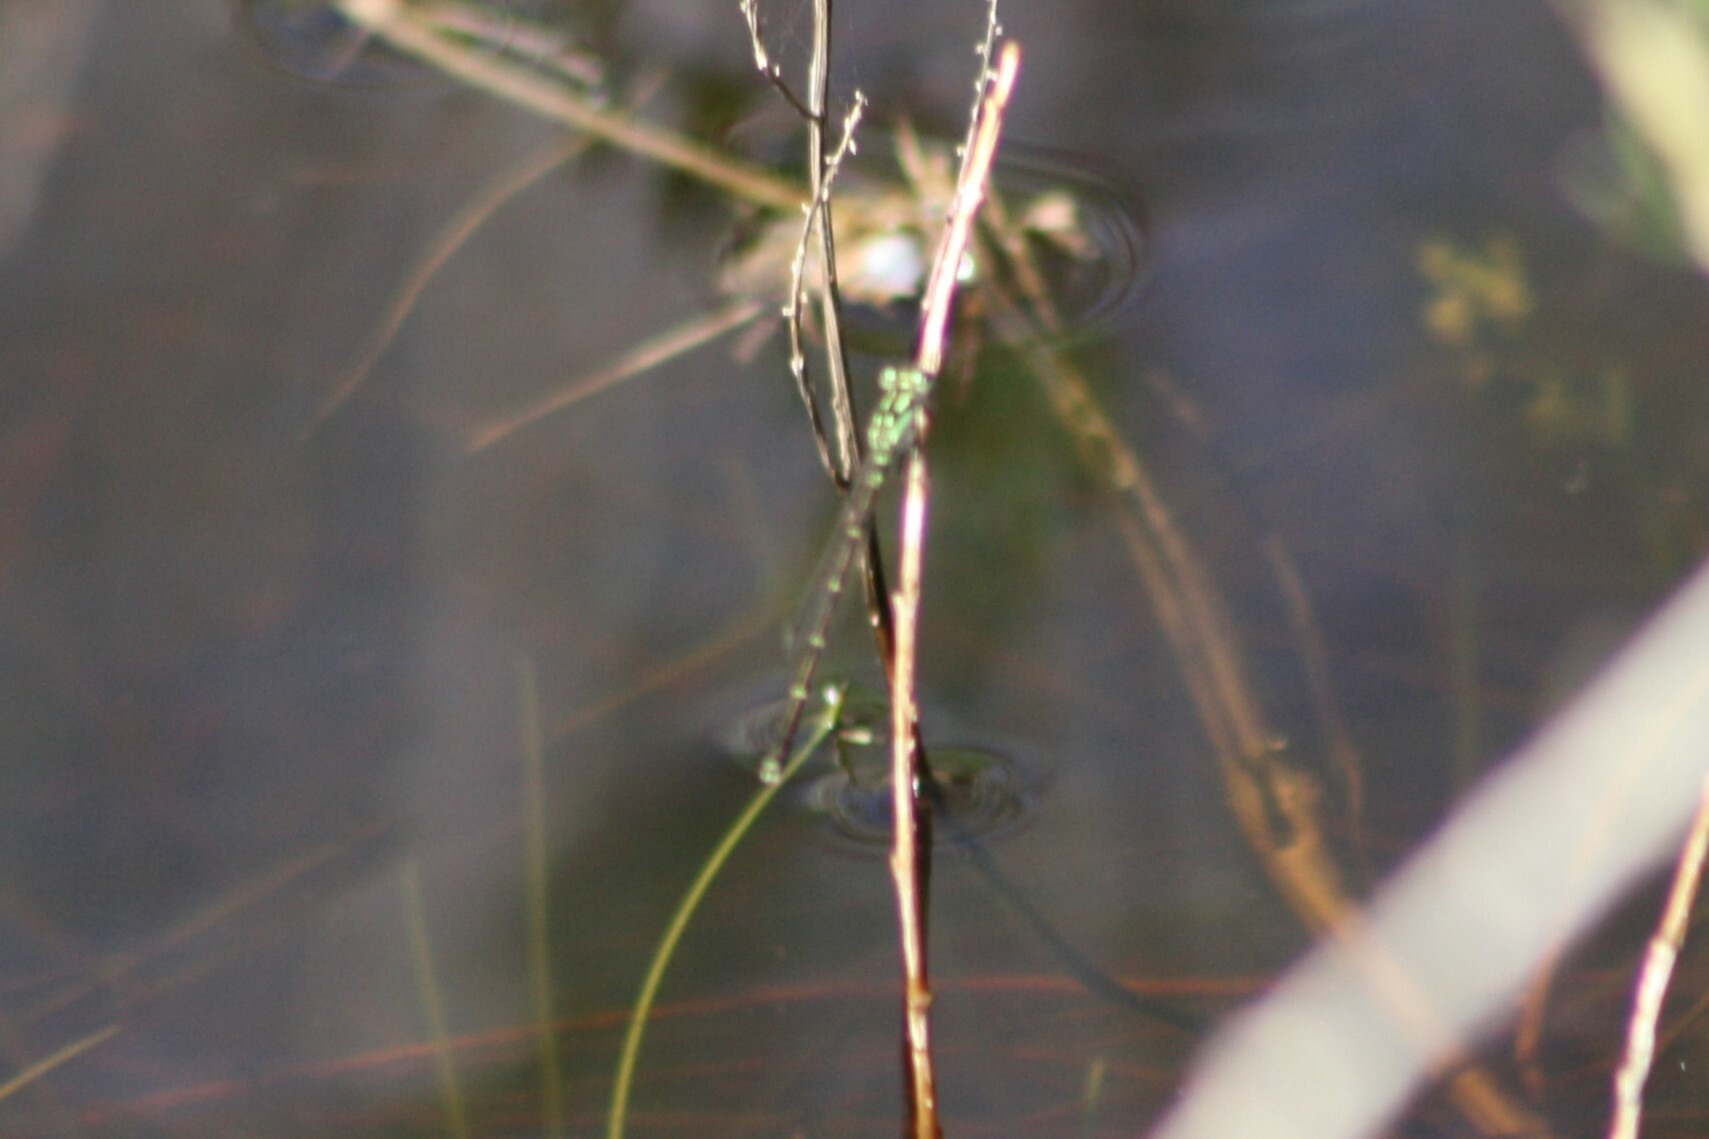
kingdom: Animalia
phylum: Arthropoda
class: Insecta
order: Odonata
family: Coenagrionidae
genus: Ischnura
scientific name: Ischnura posita
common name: Fragile forktail
